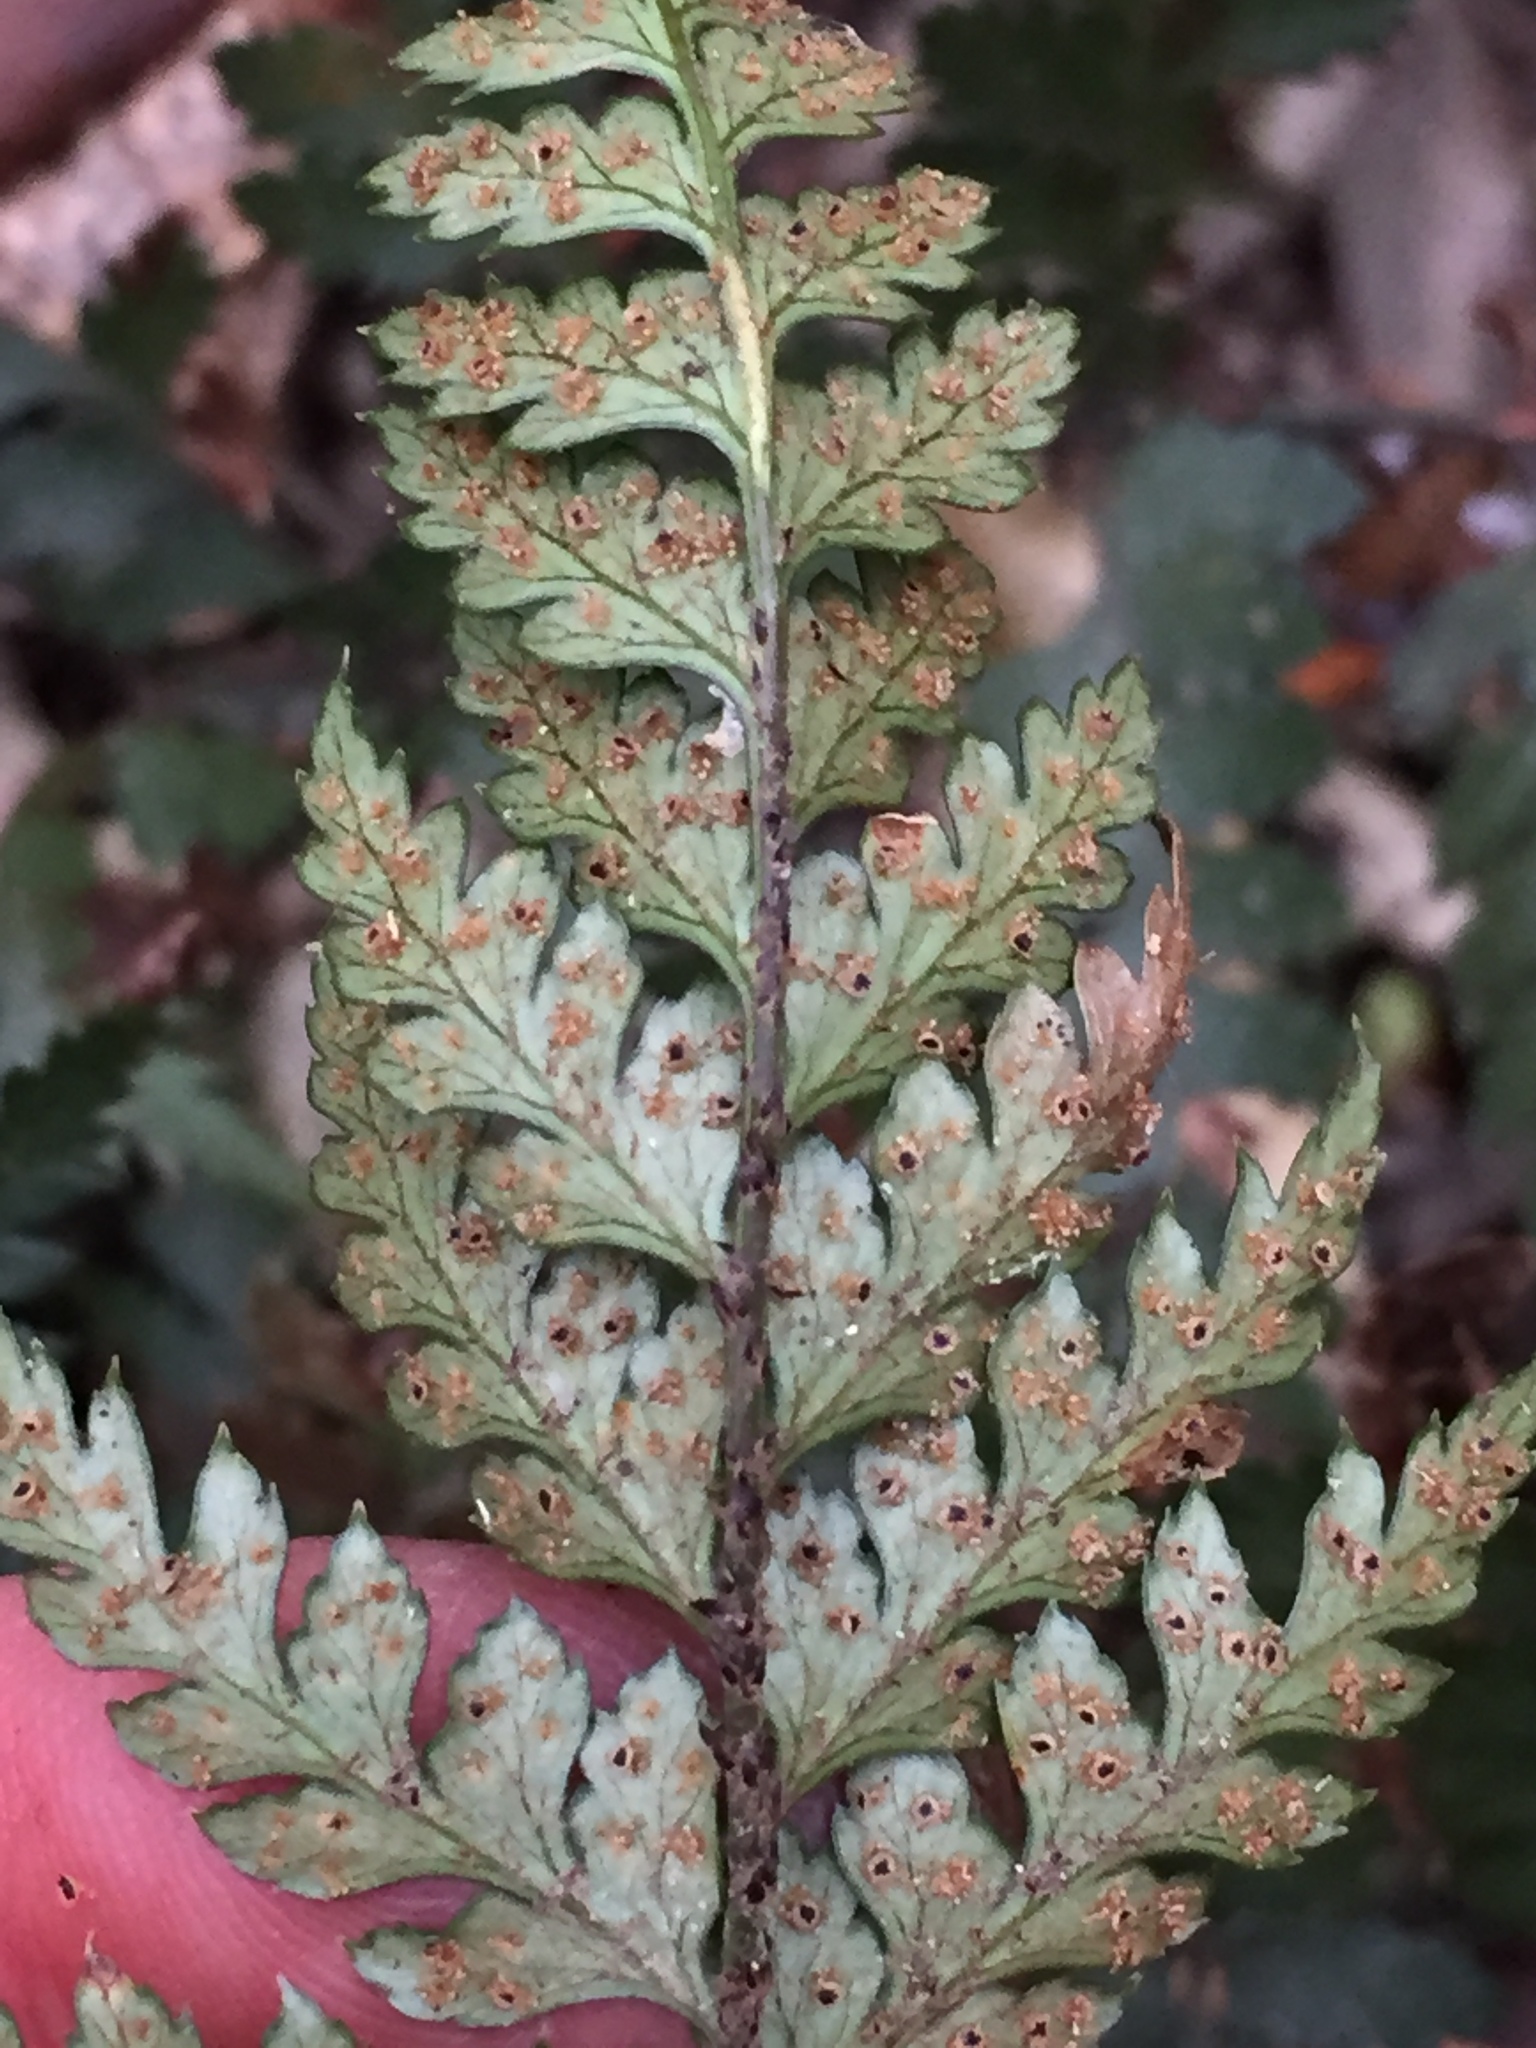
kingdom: Plantae
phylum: Tracheophyta
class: Polypodiopsida
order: Polypodiales
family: Dryopteridaceae
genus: Polystichum
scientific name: Polystichum oculatum
